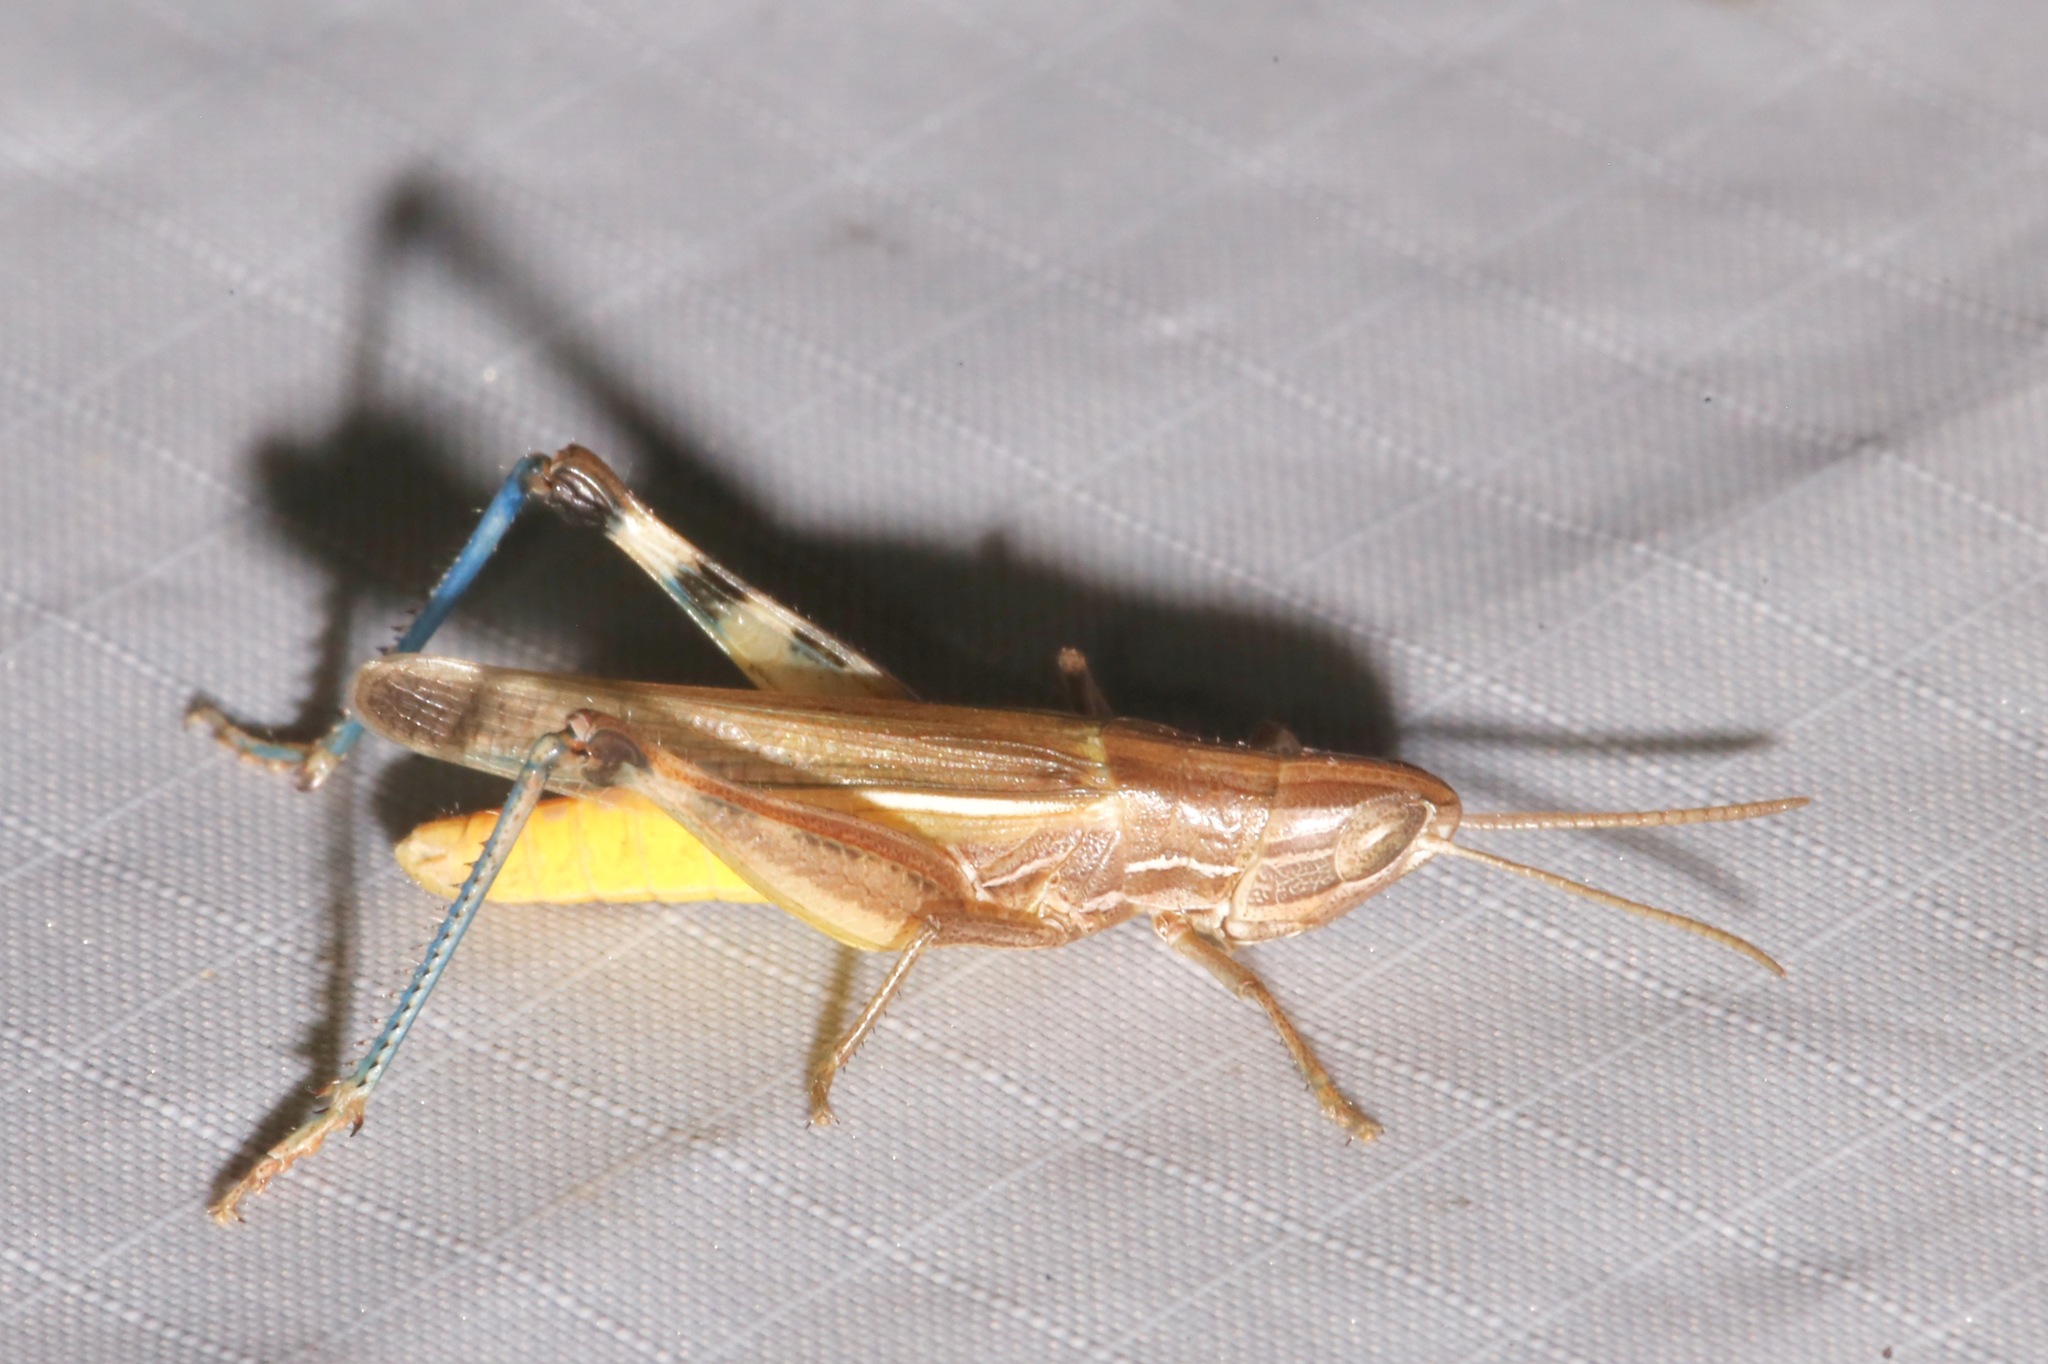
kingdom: Animalia
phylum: Arthropoda
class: Insecta
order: Orthoptera
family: Acrididae
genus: Amphitornus
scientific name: Amphitornus coloradus
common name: Striped grasshopper
